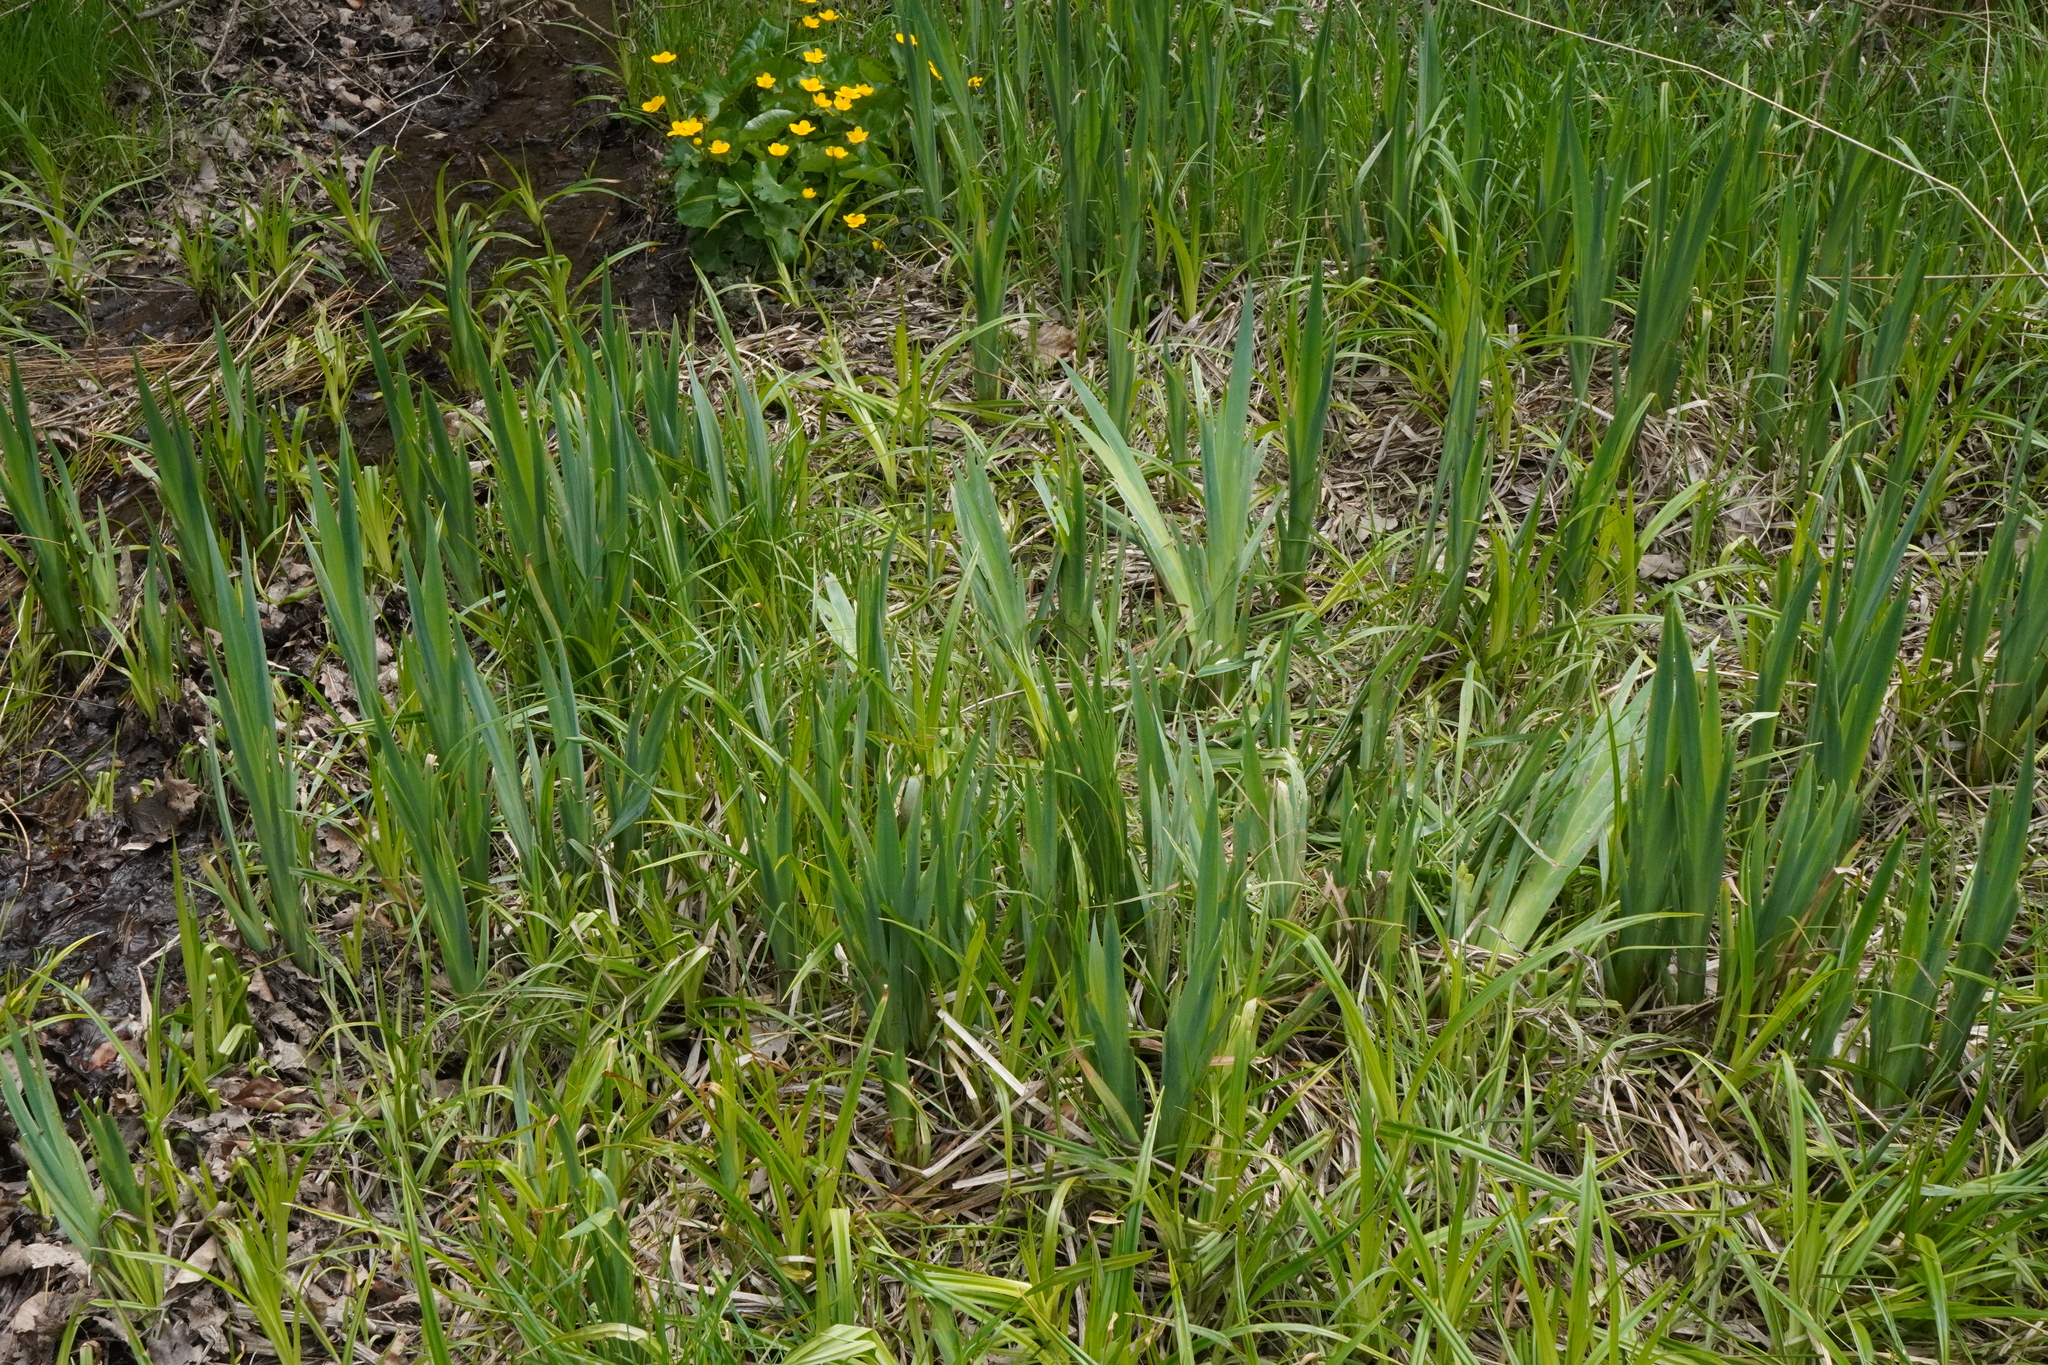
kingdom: Plantae
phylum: Tracheophyta
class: Liliopsida
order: Asparagales
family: Iridaceae
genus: Iris
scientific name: Iris pseudacorus
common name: Yellow flag
